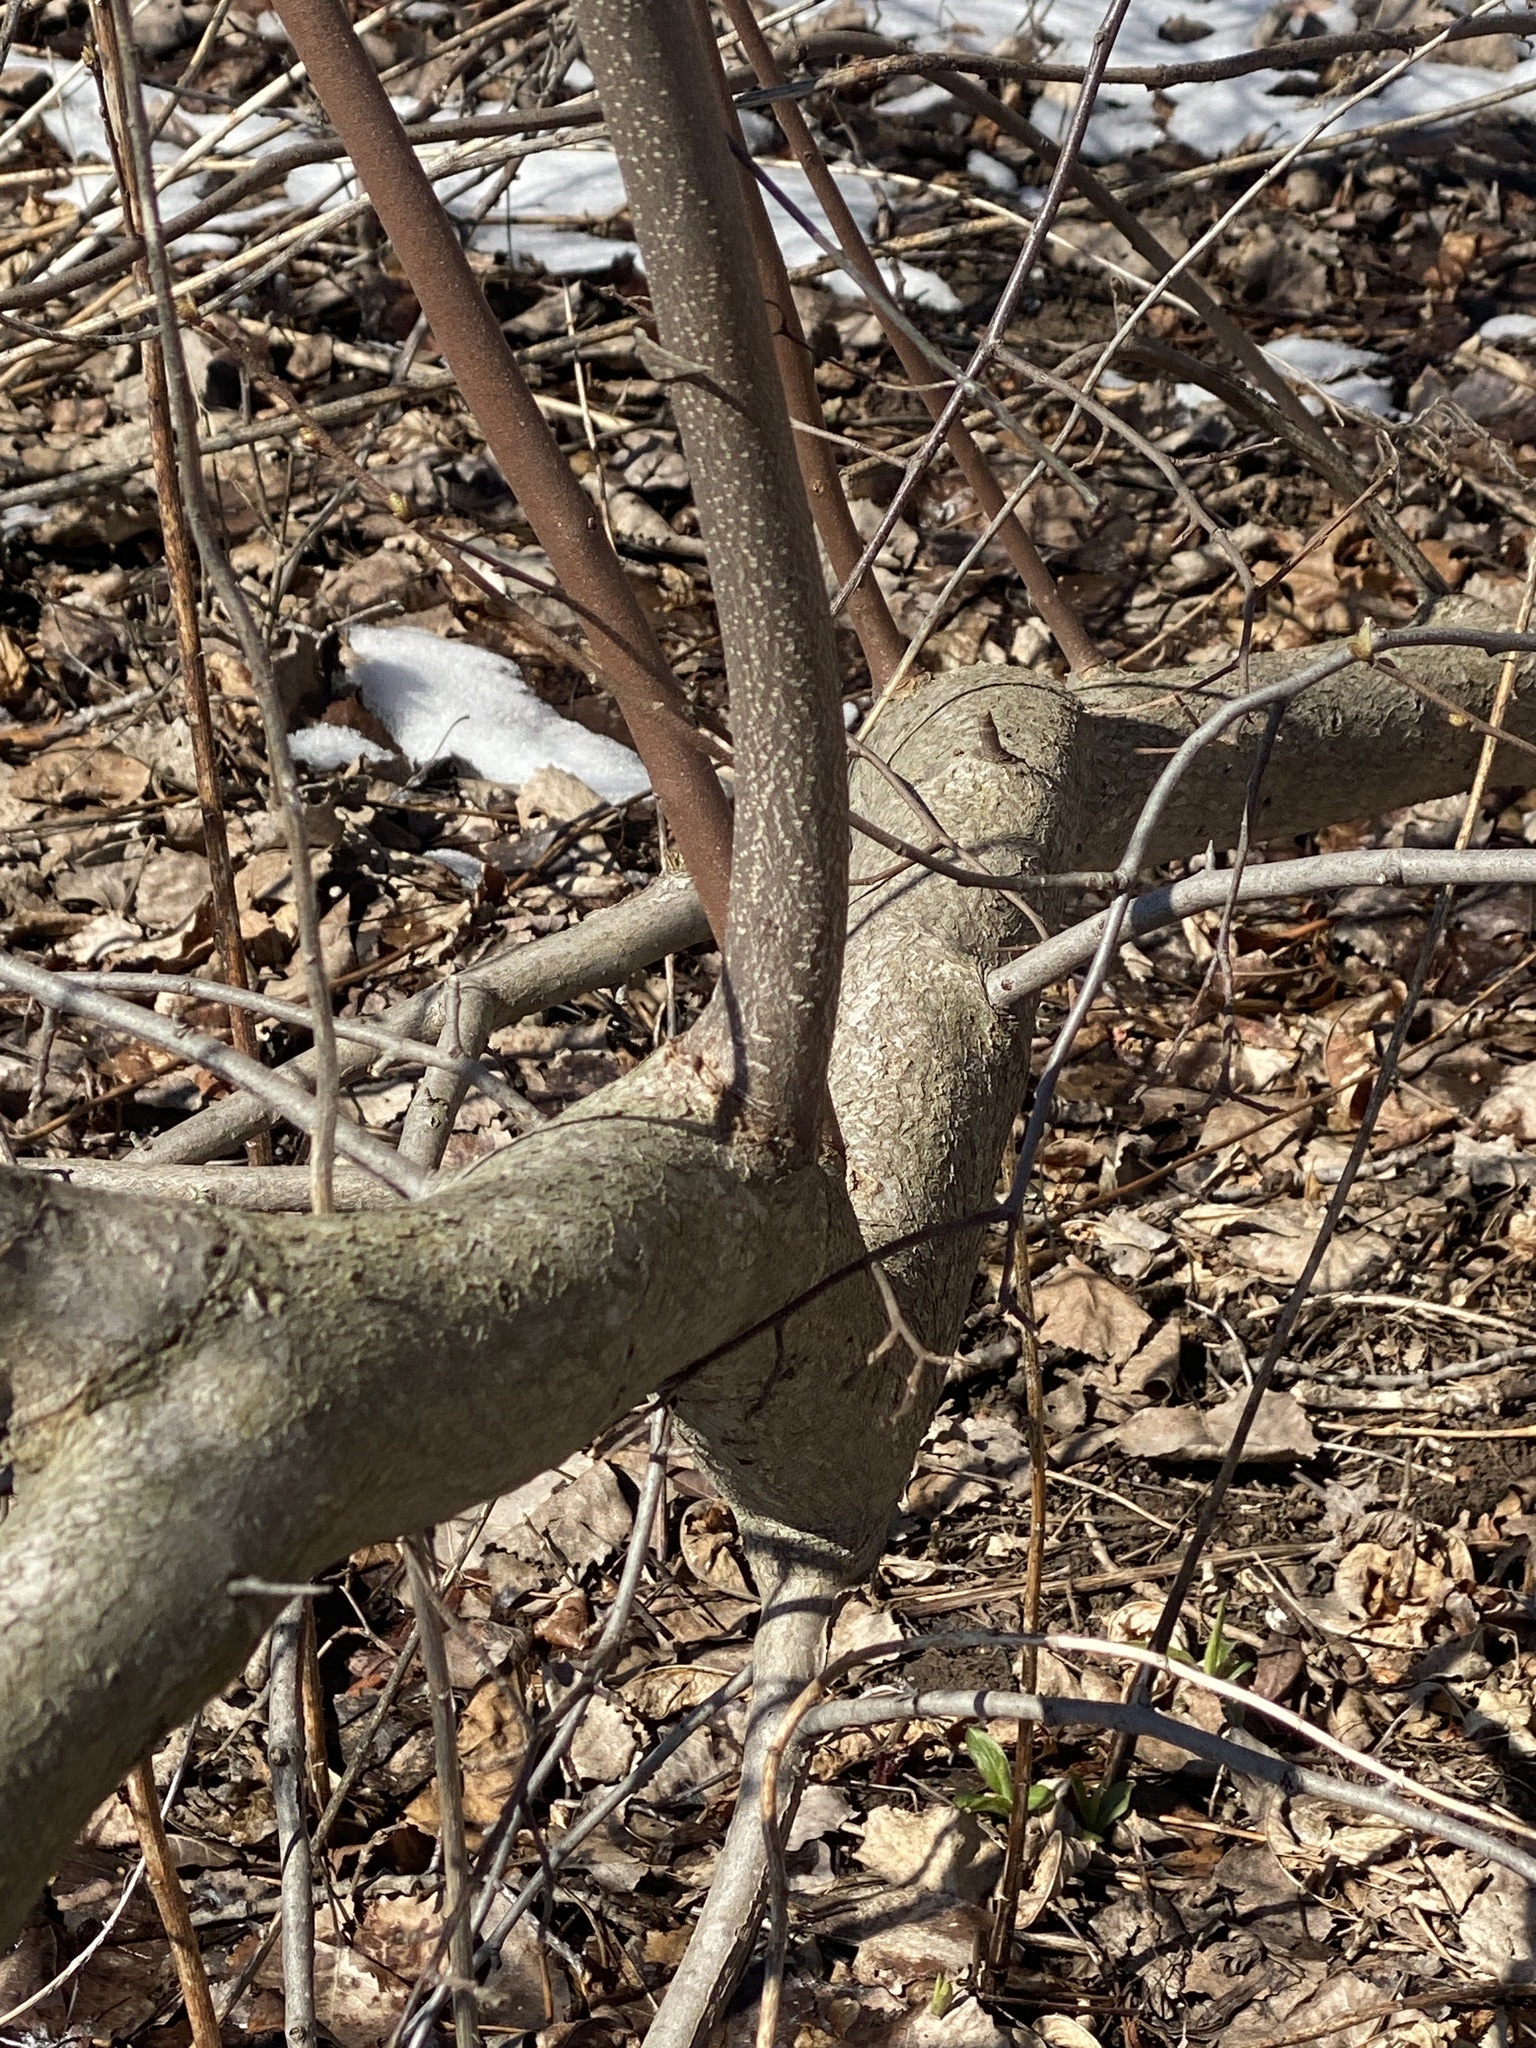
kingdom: Plantae
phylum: Tracheophyta
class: Magnoliopsida
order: Rosales
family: Elaeagnaceae
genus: Elaeagnus
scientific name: Elaeagnus umbellata
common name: Autumn olive
